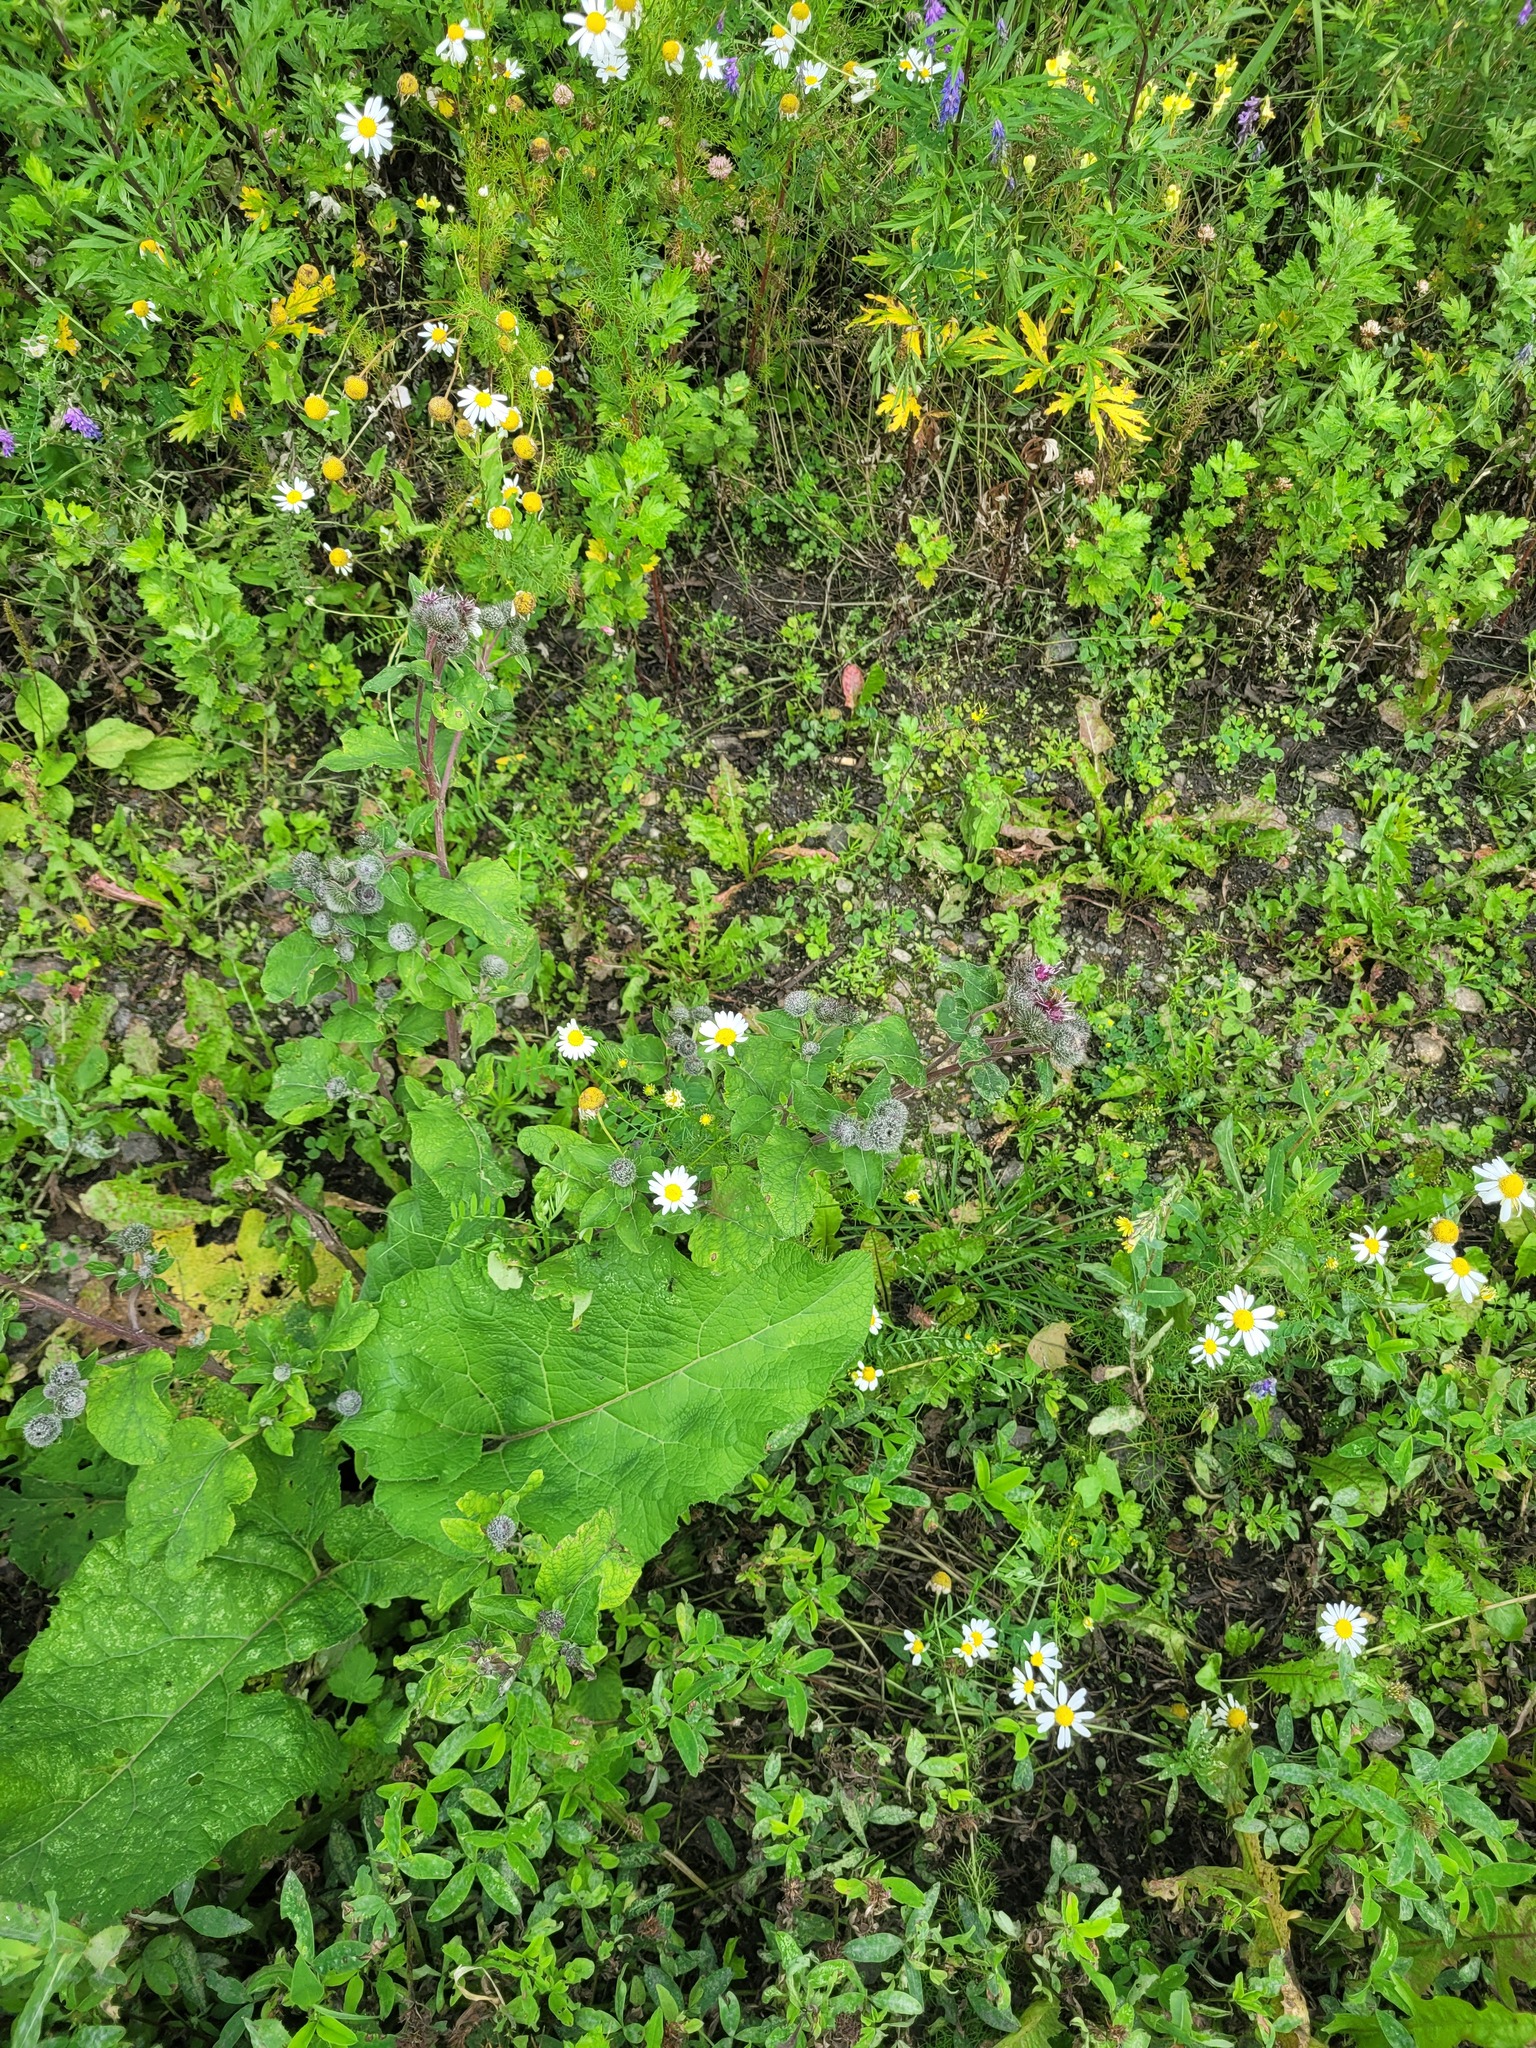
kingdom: Plantae
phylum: Tracheophyta
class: Magnoliopsida
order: Asterales
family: Asteraceae
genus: Arctium
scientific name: Arctium tomentosum
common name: Woolly burdock
